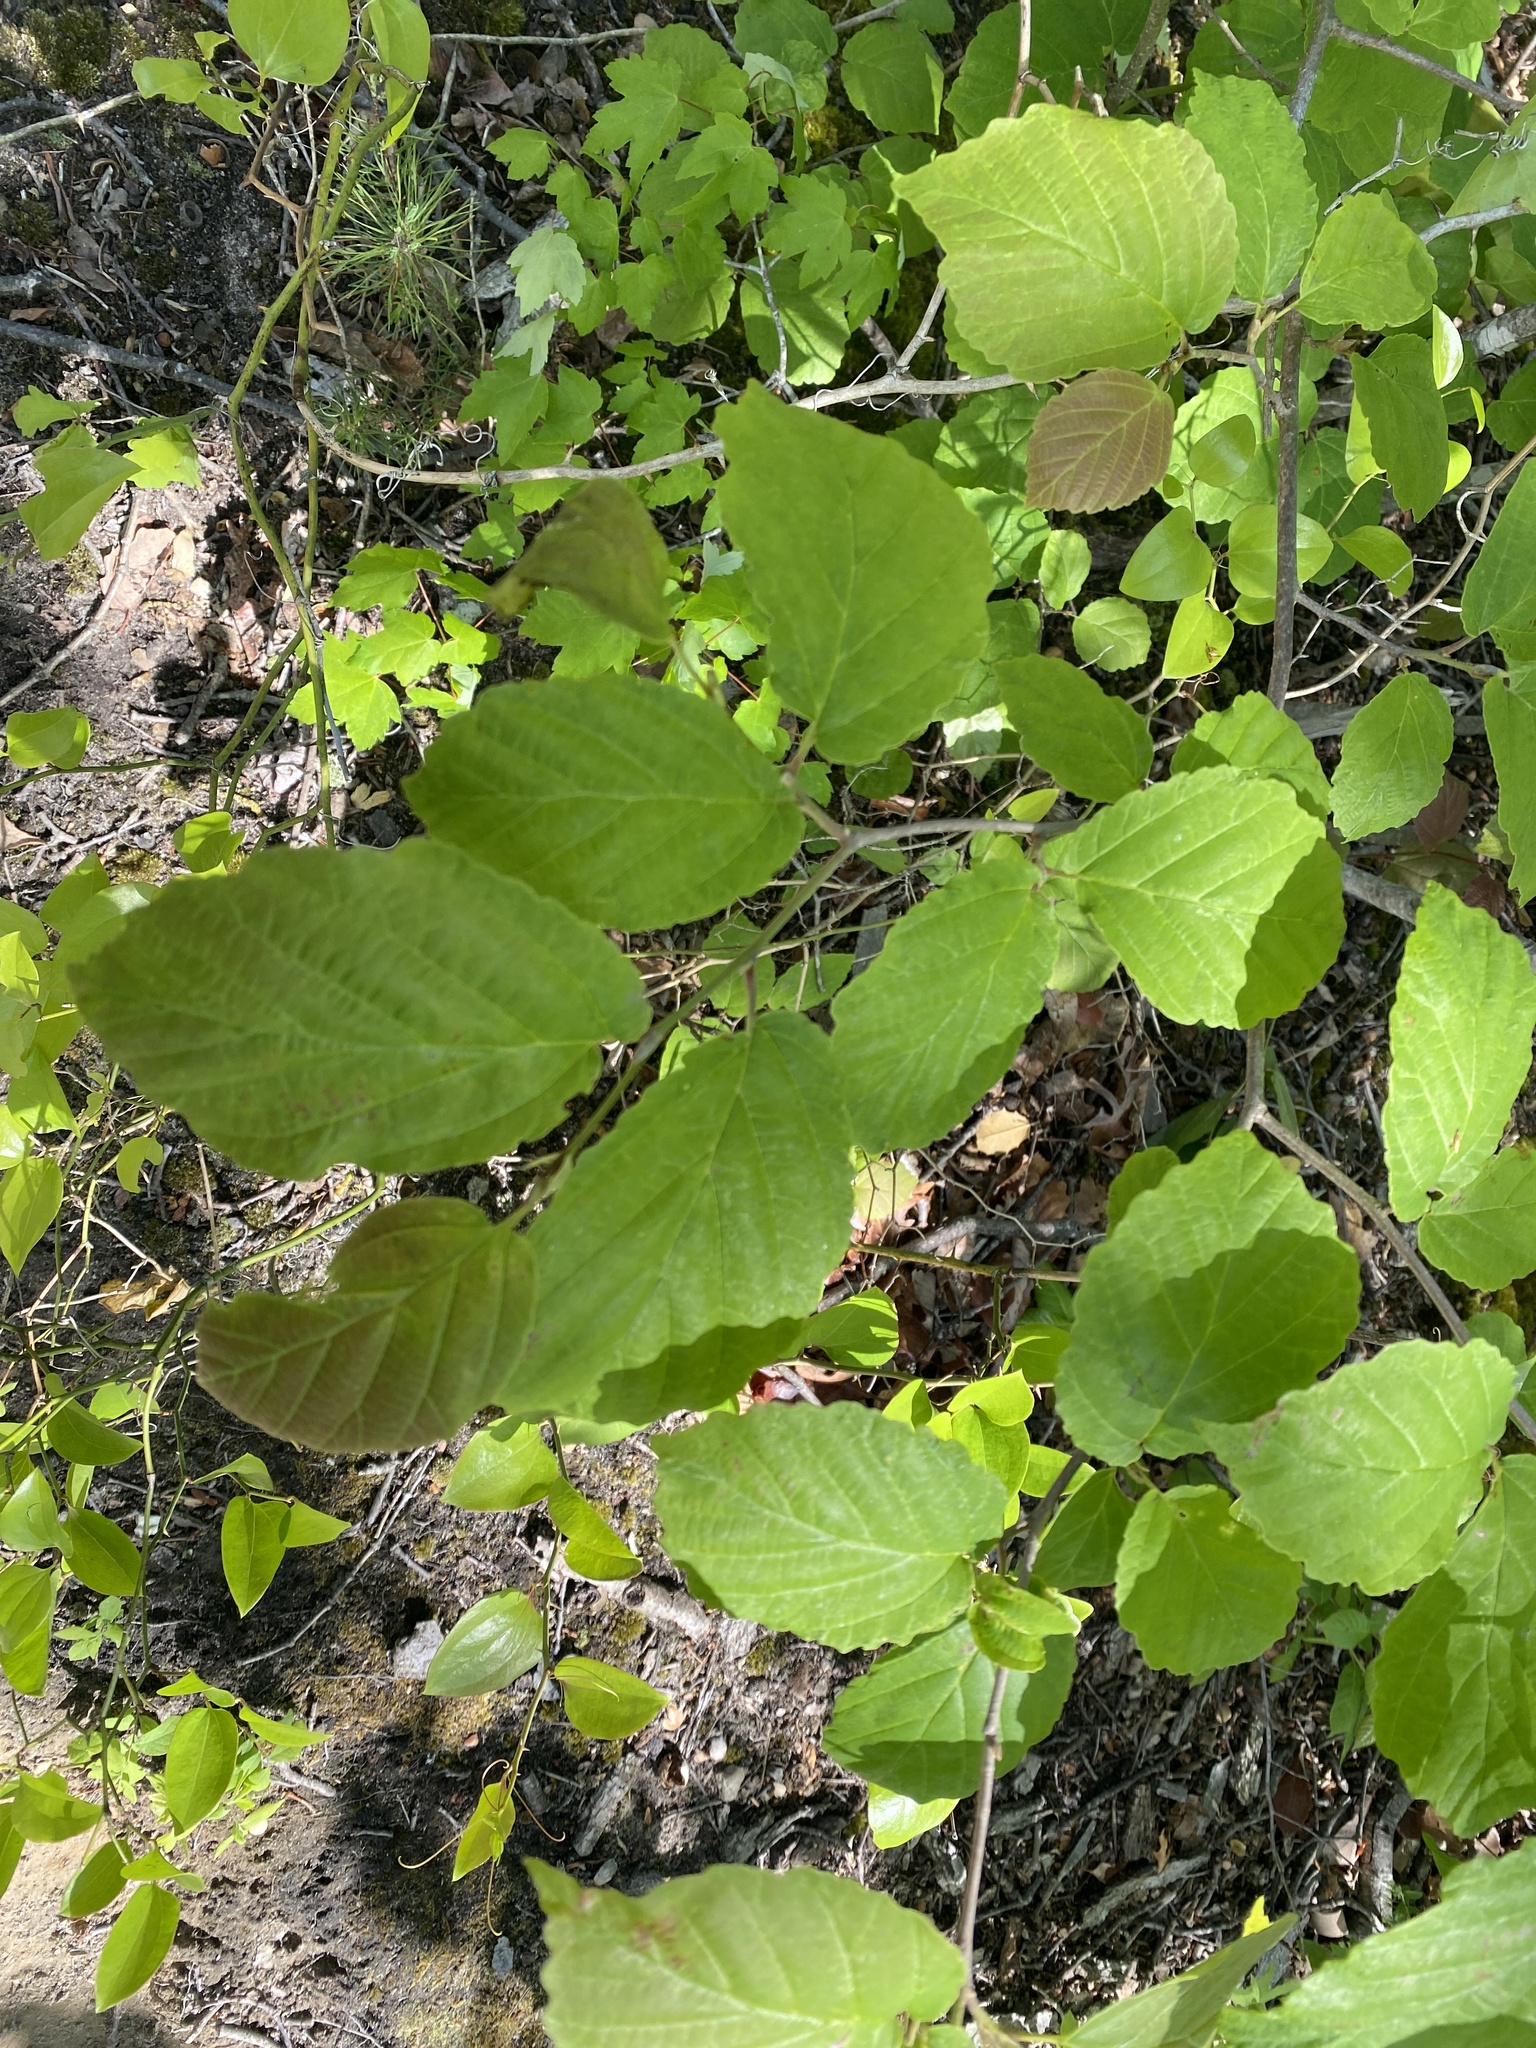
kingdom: Plantae
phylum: Tracheophyta
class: Magnoliopsida
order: Saxifragales
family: Hamamelidaceae
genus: Hamamelis
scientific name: Hamamelis virginiana
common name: Witch-hazel
